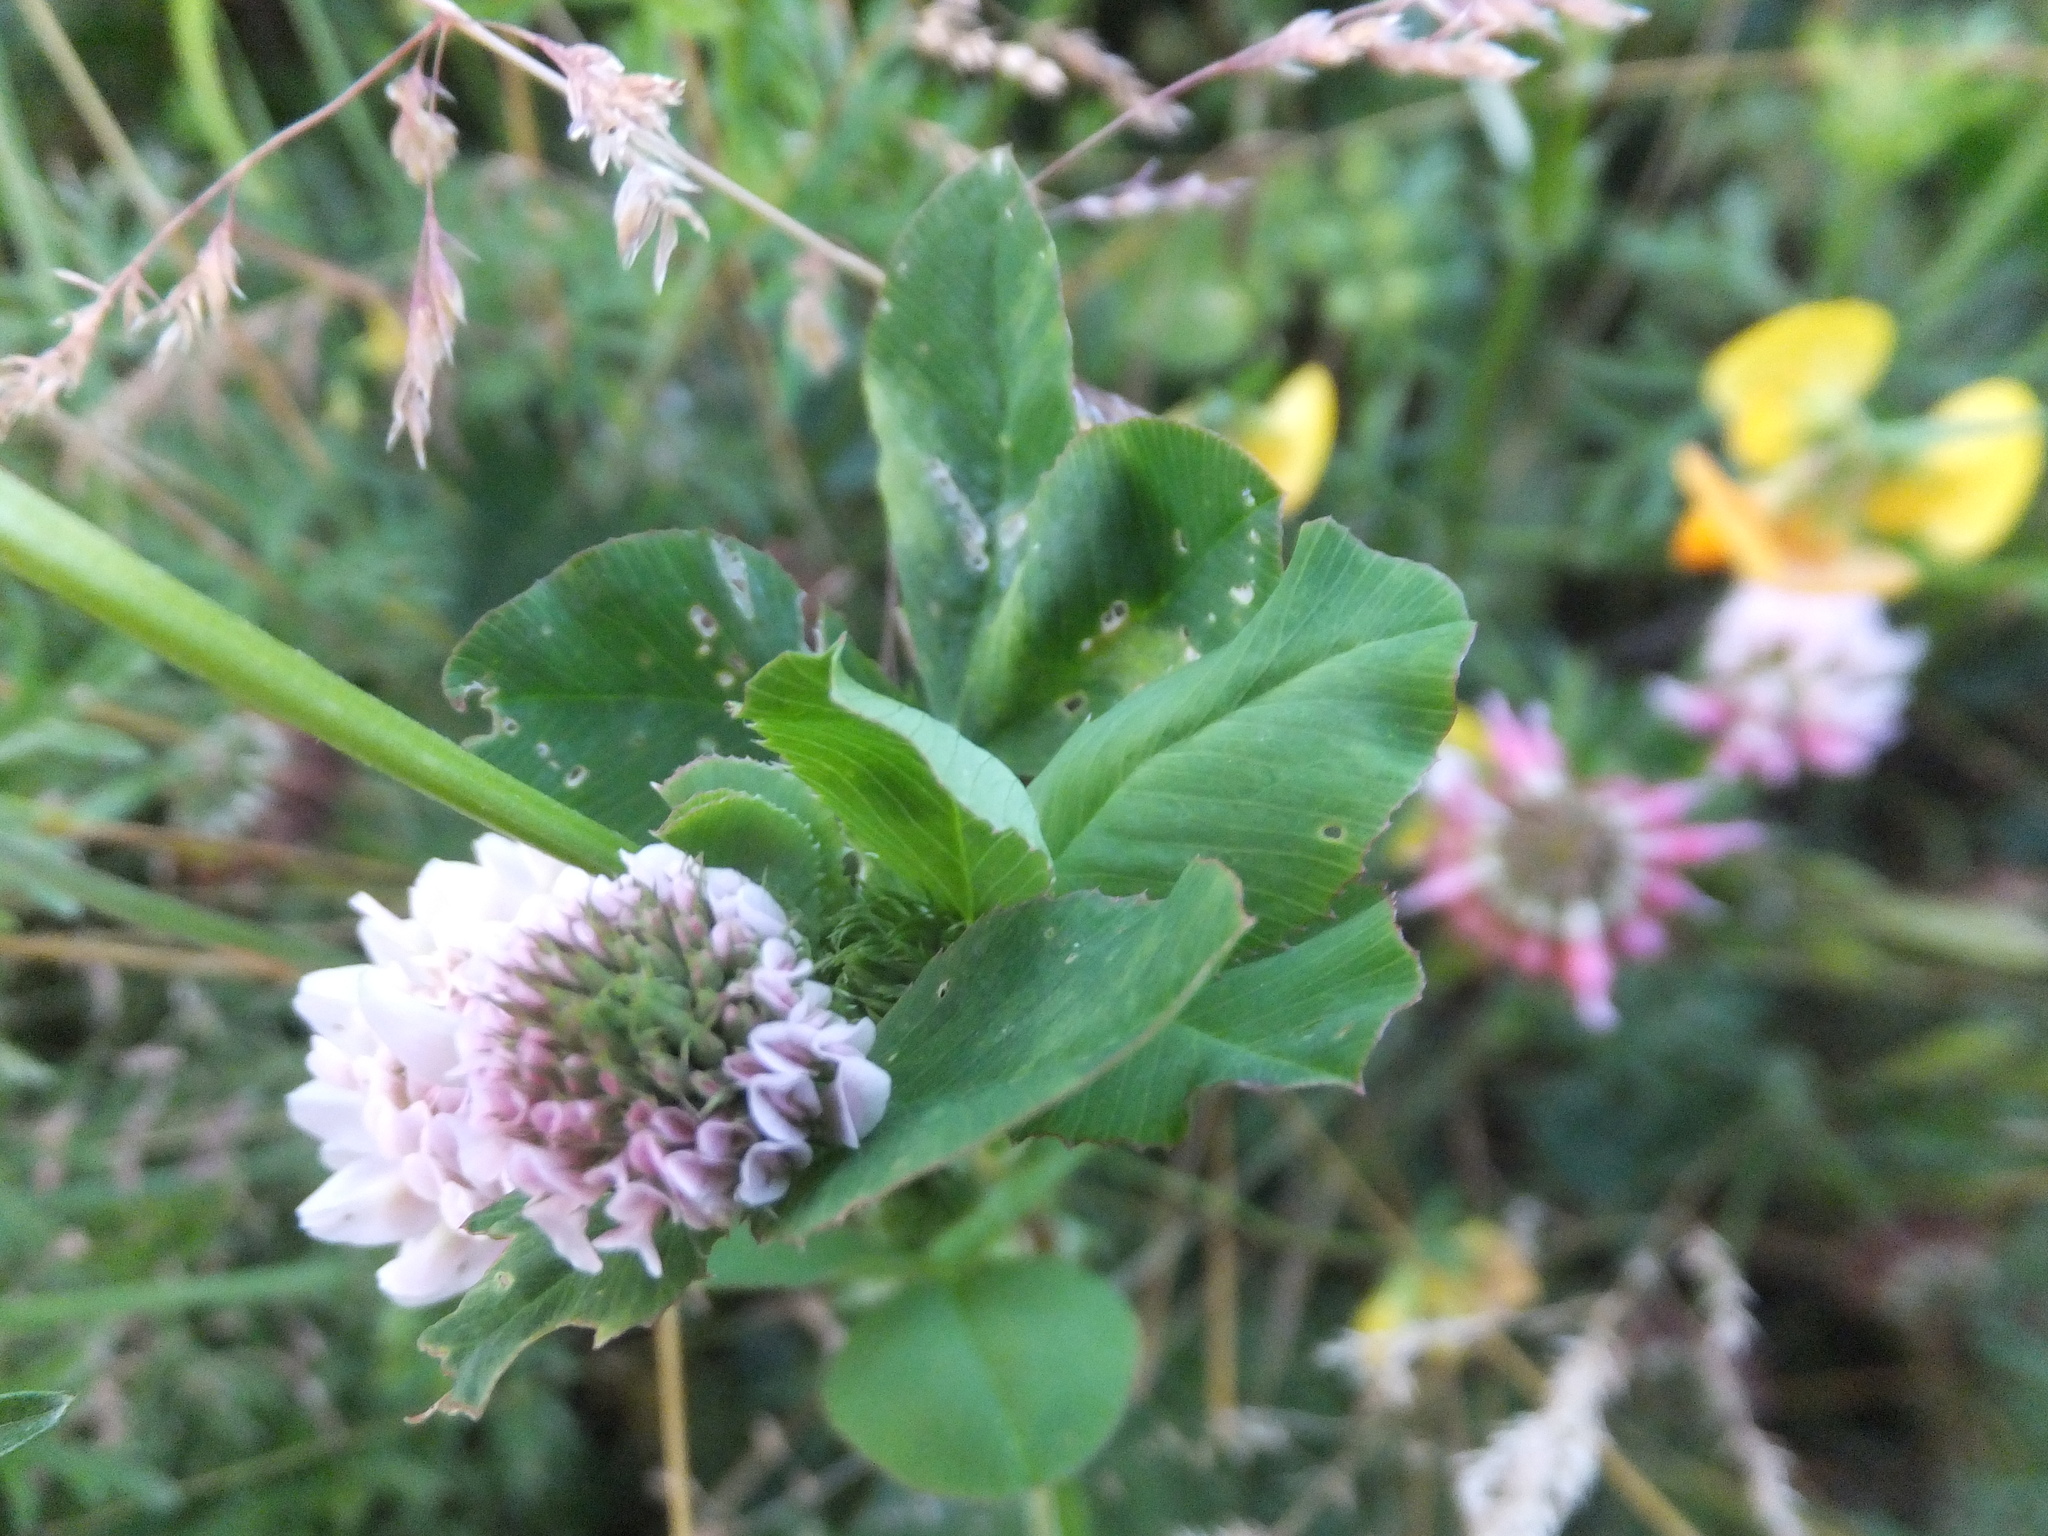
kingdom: Plantae
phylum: Tracheophyta
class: Magnoliopsida
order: Fabales
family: Fabaceae
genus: Trifolium
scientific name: Trifolium hybridum
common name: Alsike clover
